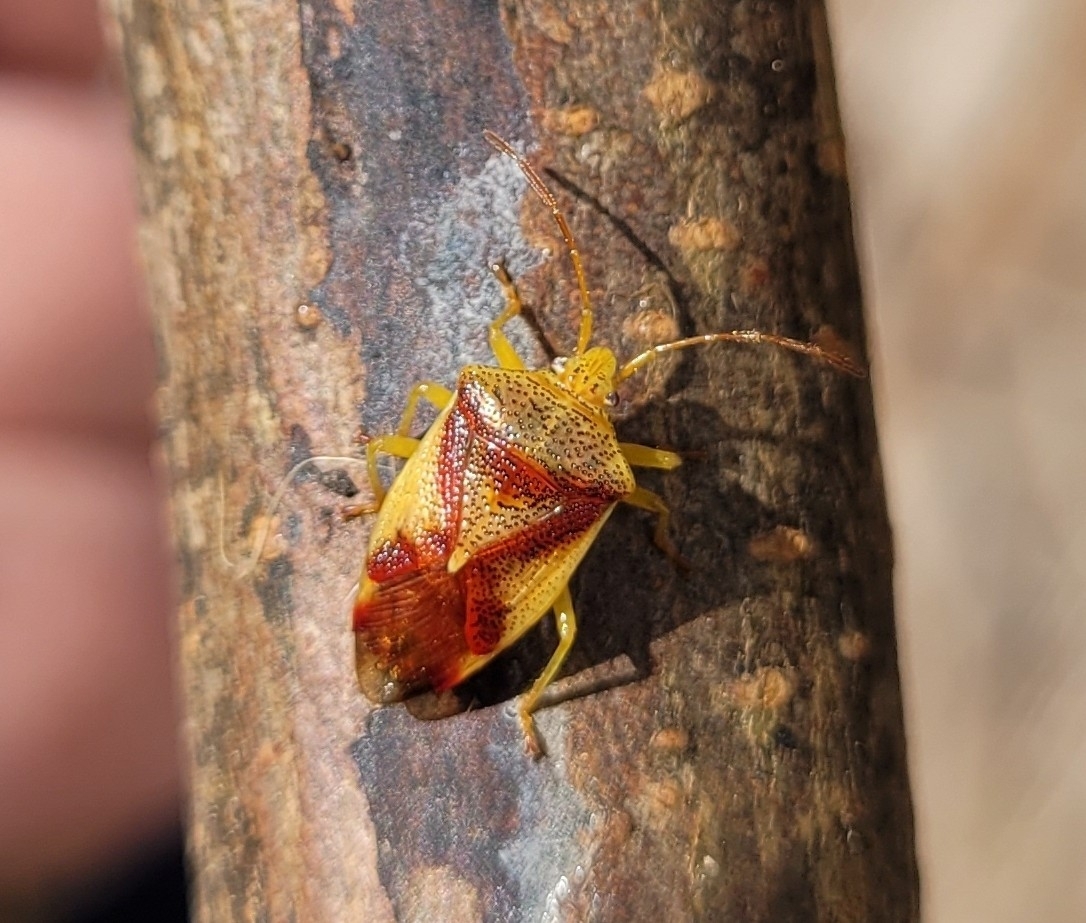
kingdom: Animalia
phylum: Arthropoda
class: Insecta
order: Hemiptera
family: Acanthosomatidae
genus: Elasmostethus
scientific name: Elasmostethus cruciatus
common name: Red-cross shield bug
